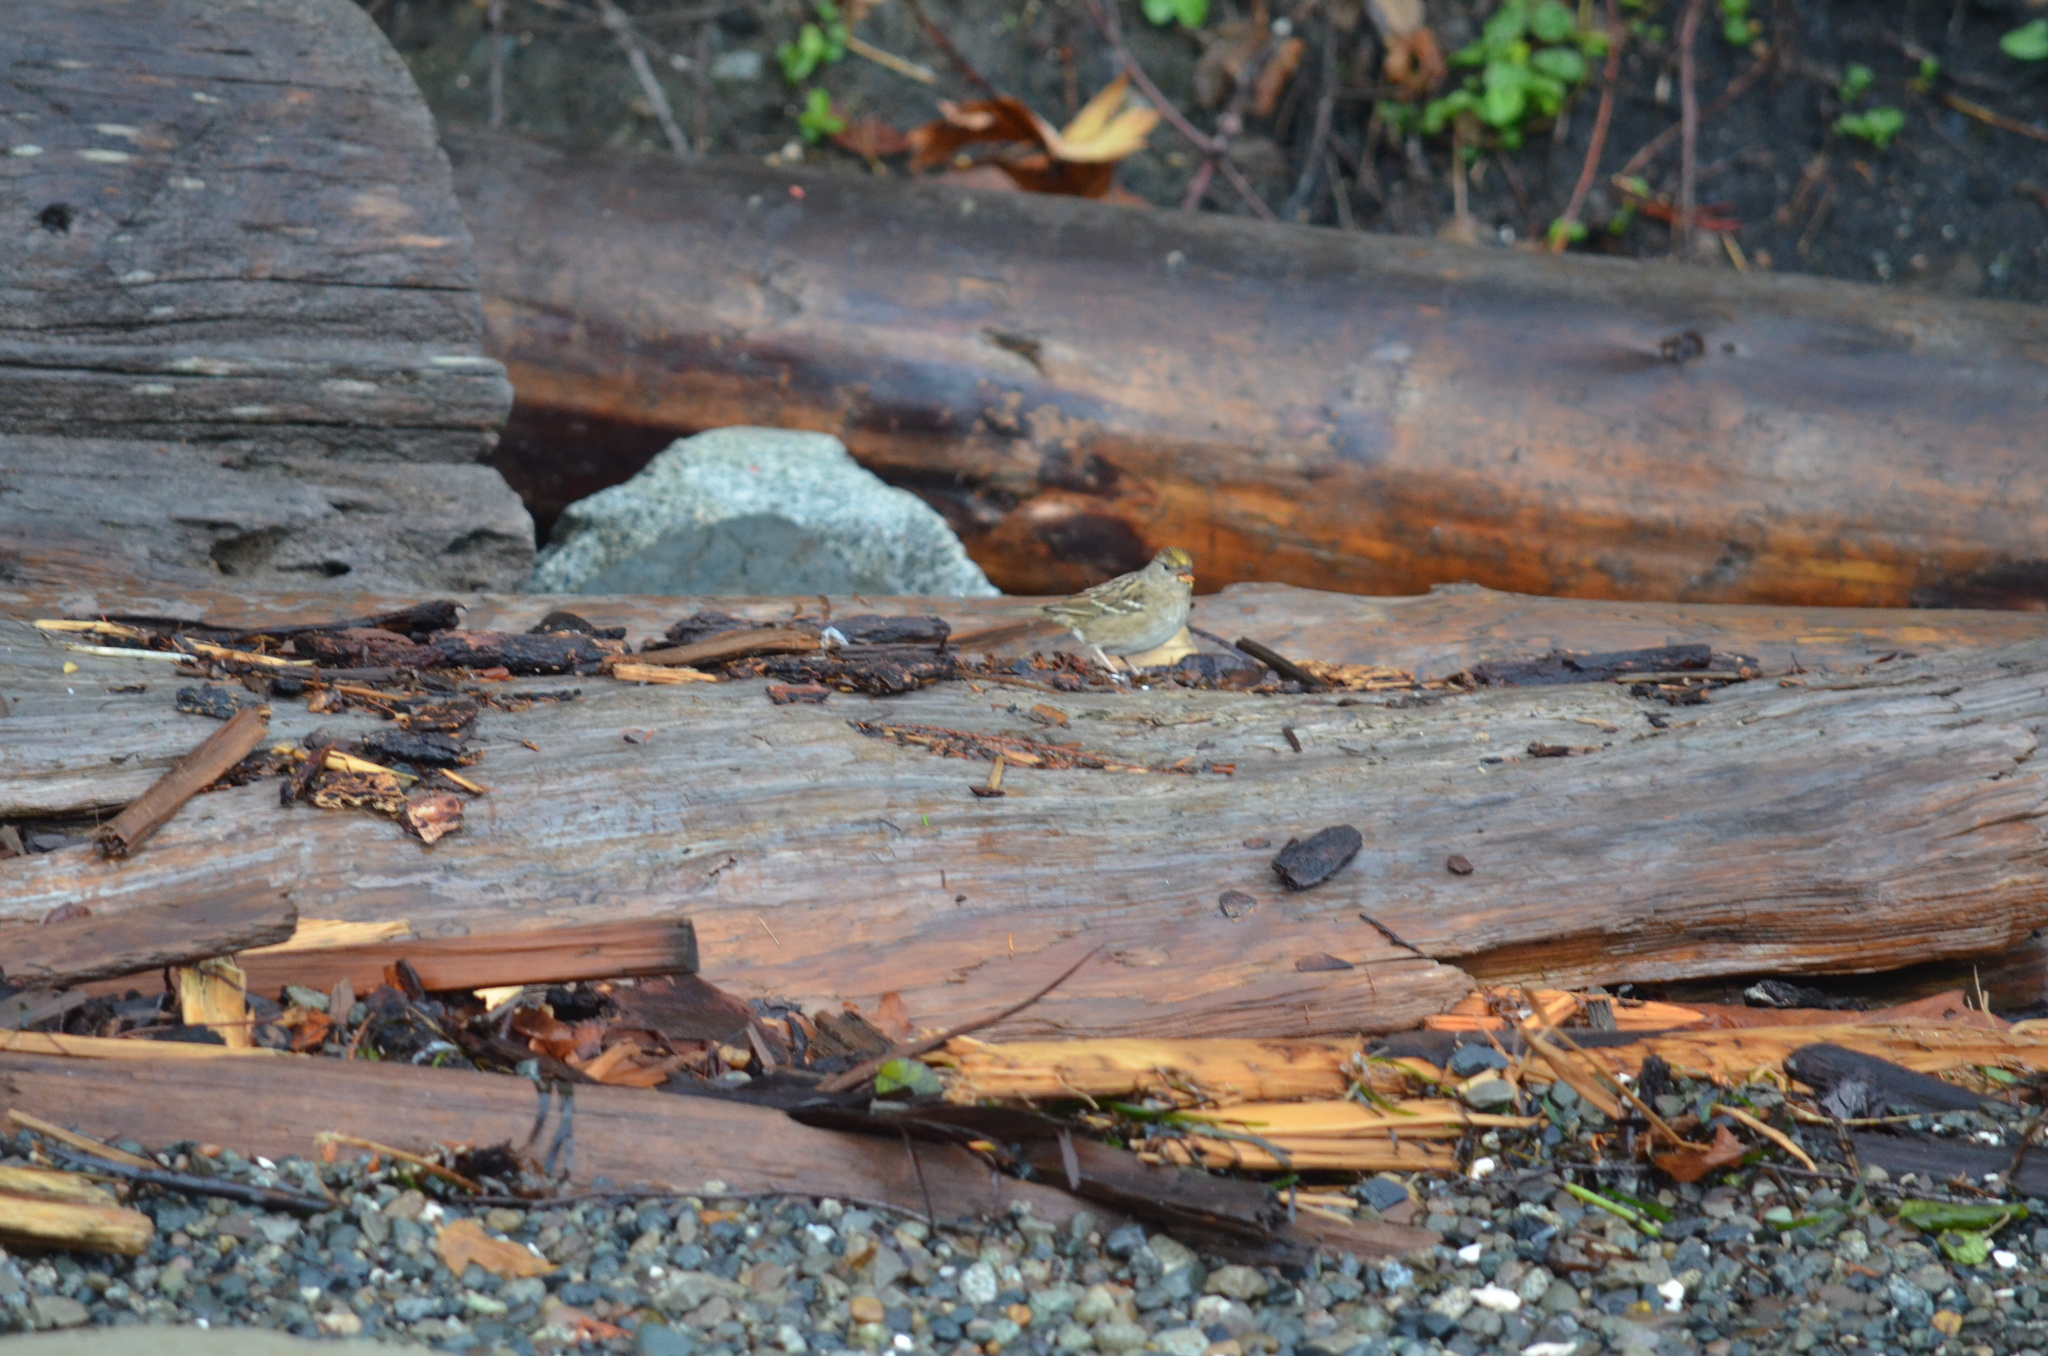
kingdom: Animalia
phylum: Chordata
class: Aves
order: Passeriformes
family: Passerellidae
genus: Zonotrichia
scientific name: Zonotrichia atricapilla
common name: Golden-crowned sparrow
